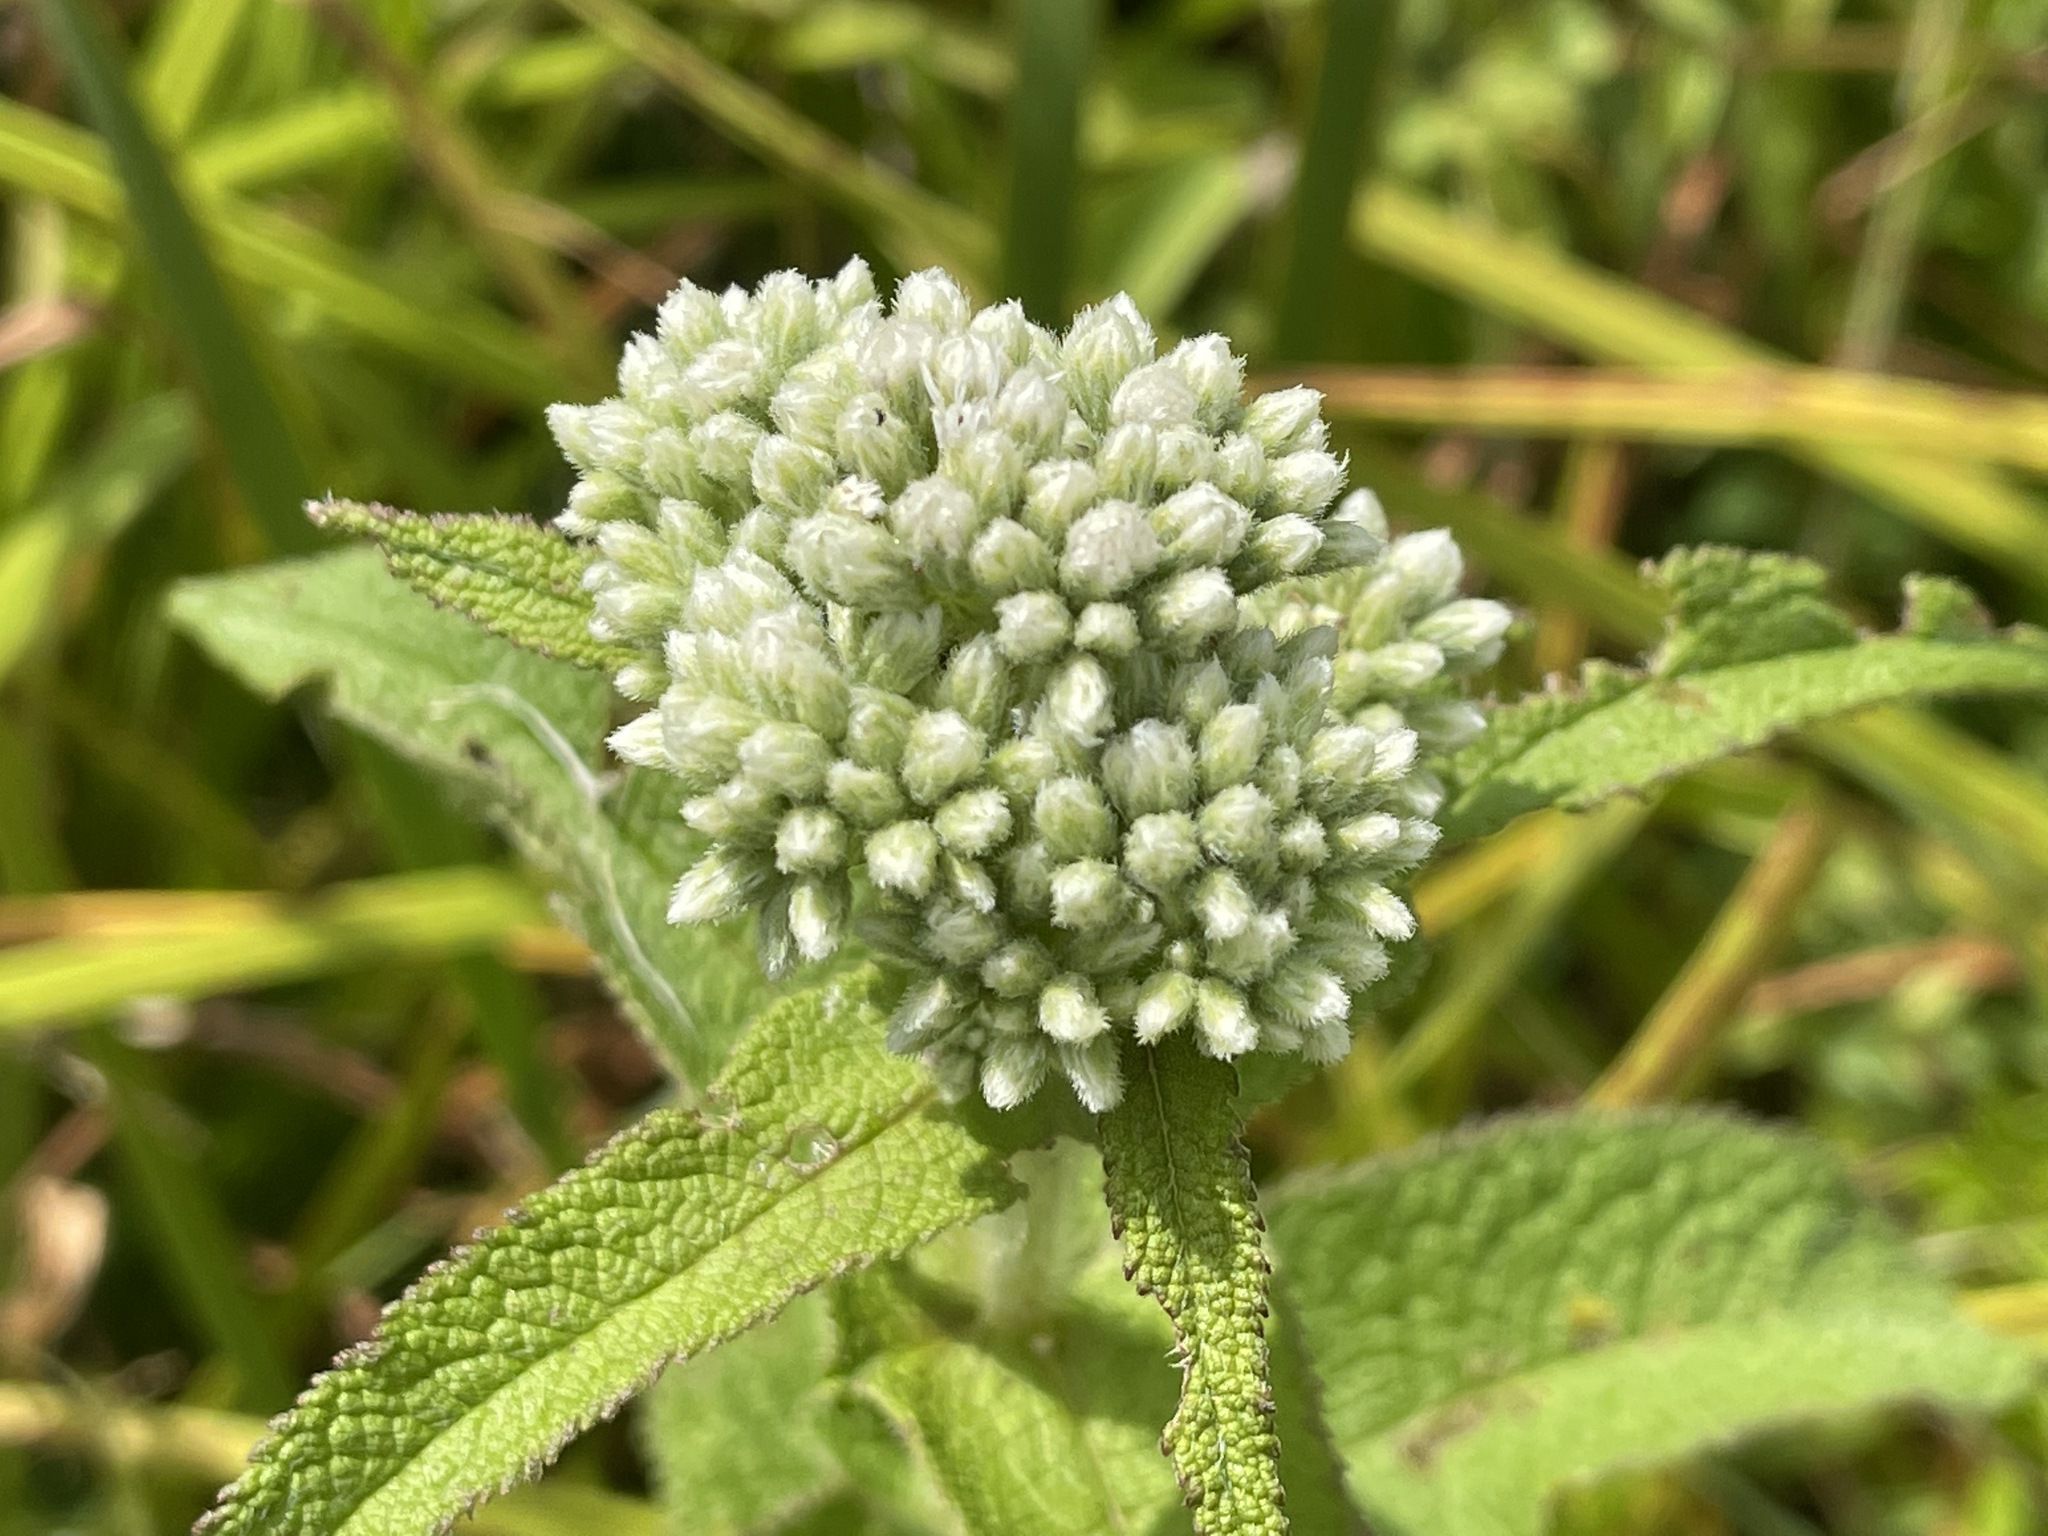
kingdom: Plantae
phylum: Tracheophyta
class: Magnoliopsida
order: Asterales
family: Asteraceae
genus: Eupatorium
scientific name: Eupatorium perfoliatum
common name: Boneset
